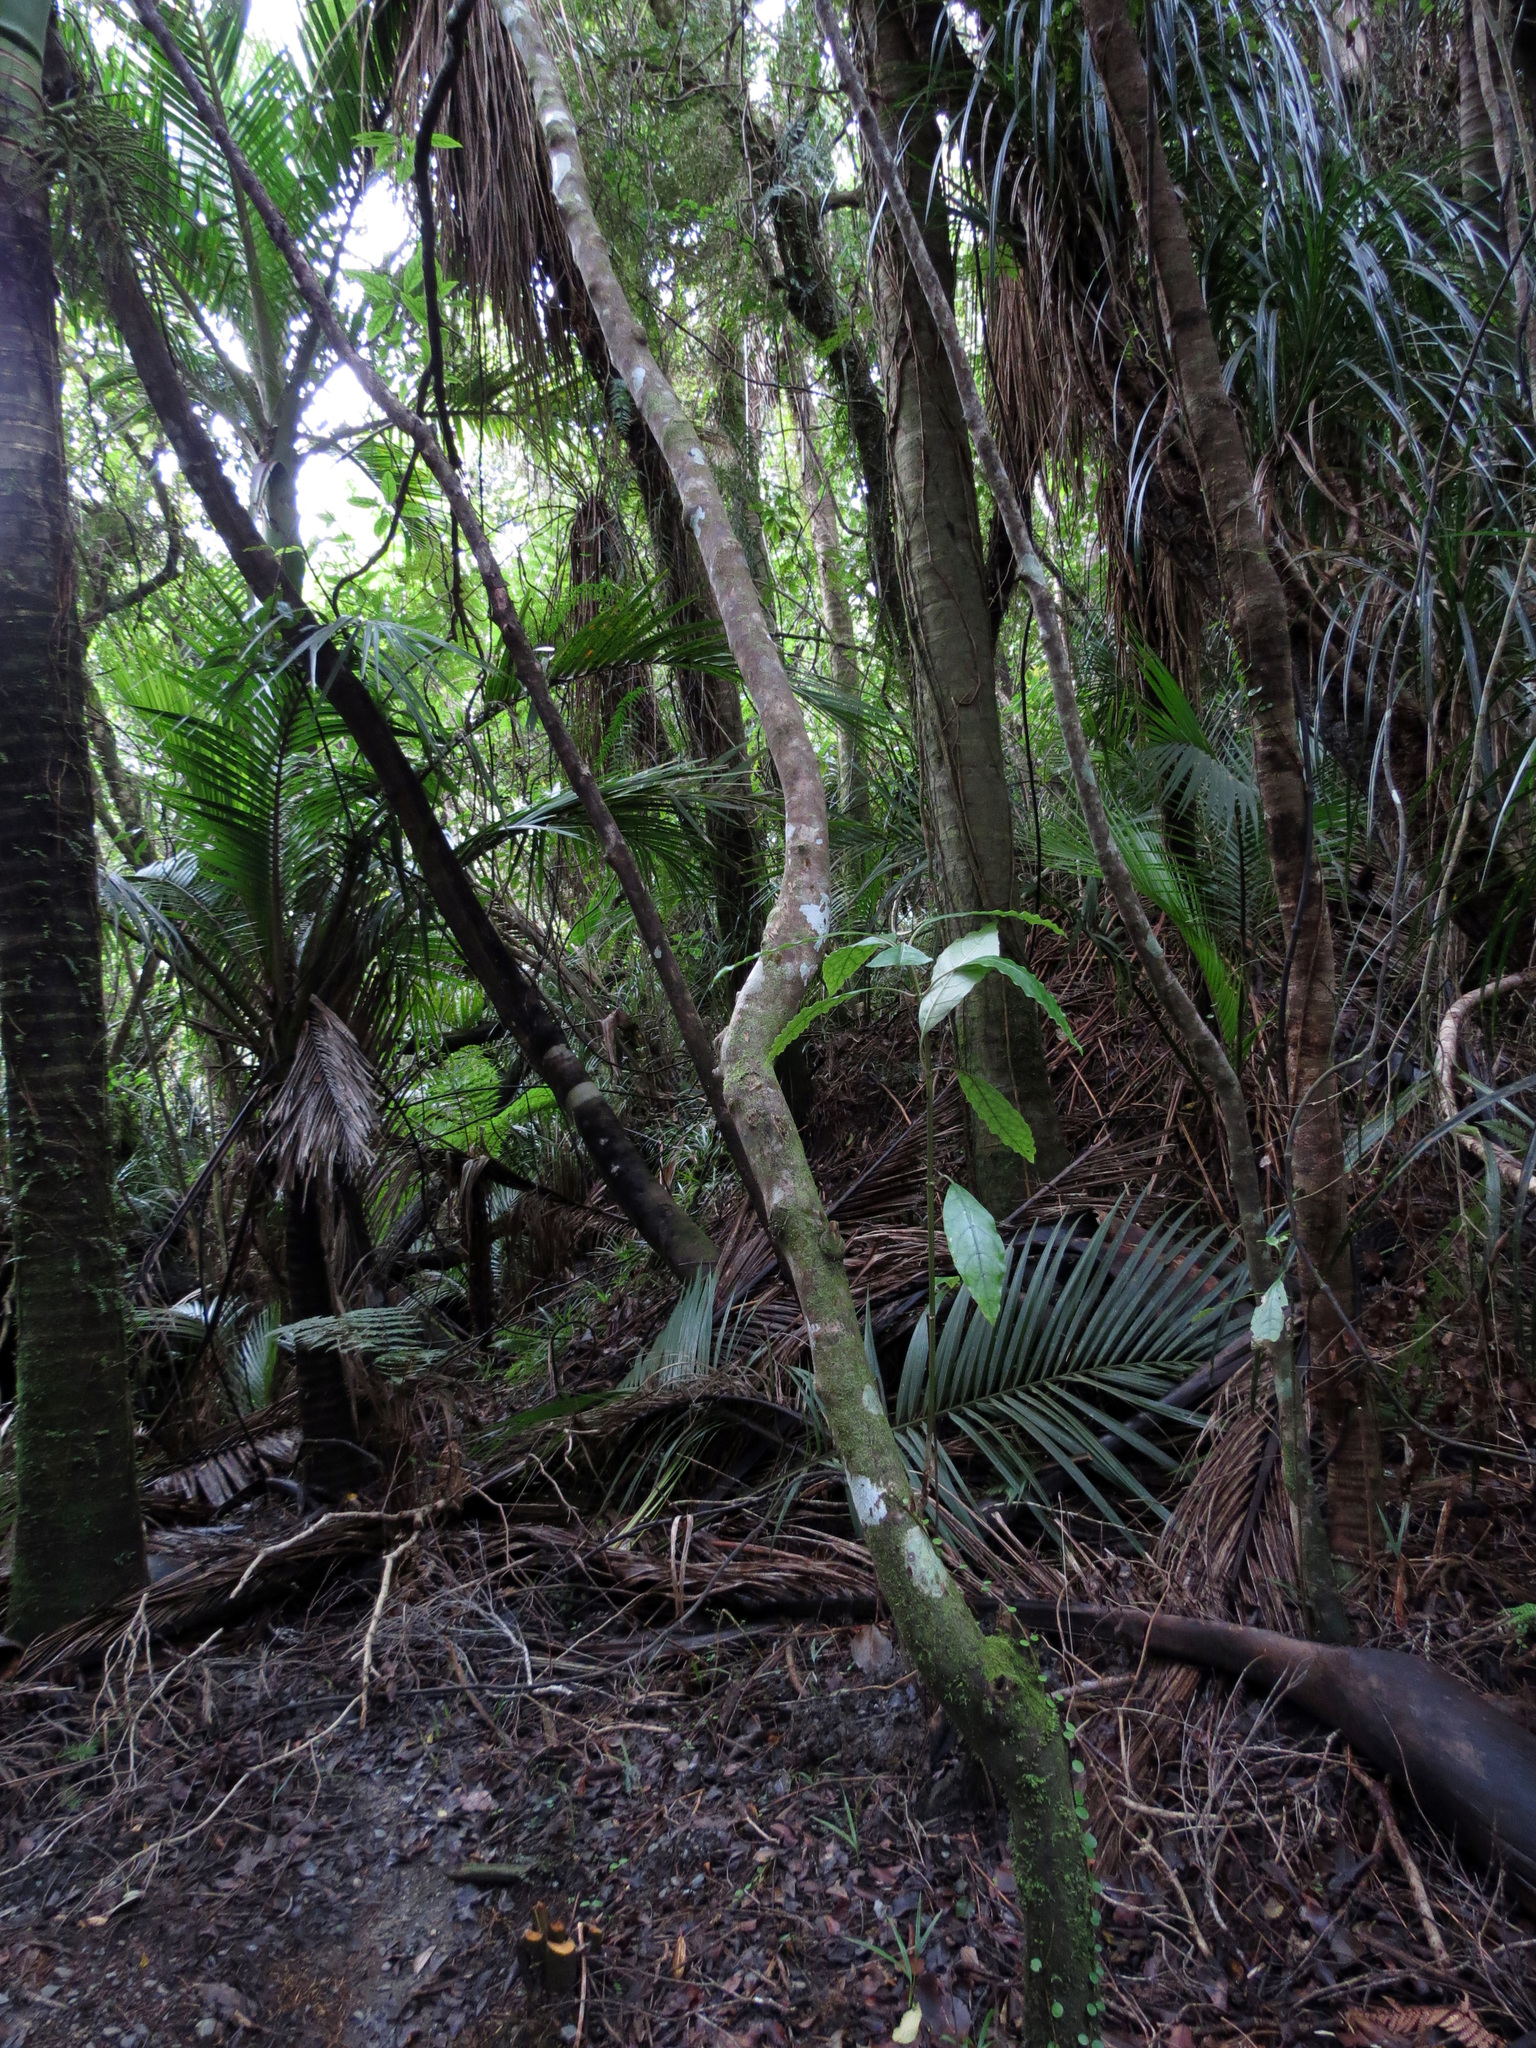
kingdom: Plantae
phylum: Tracheophyta
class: Magnoliopsida
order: Gentianales
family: Rubiaceae
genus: Coprosma
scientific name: Coprosma autumnalis
